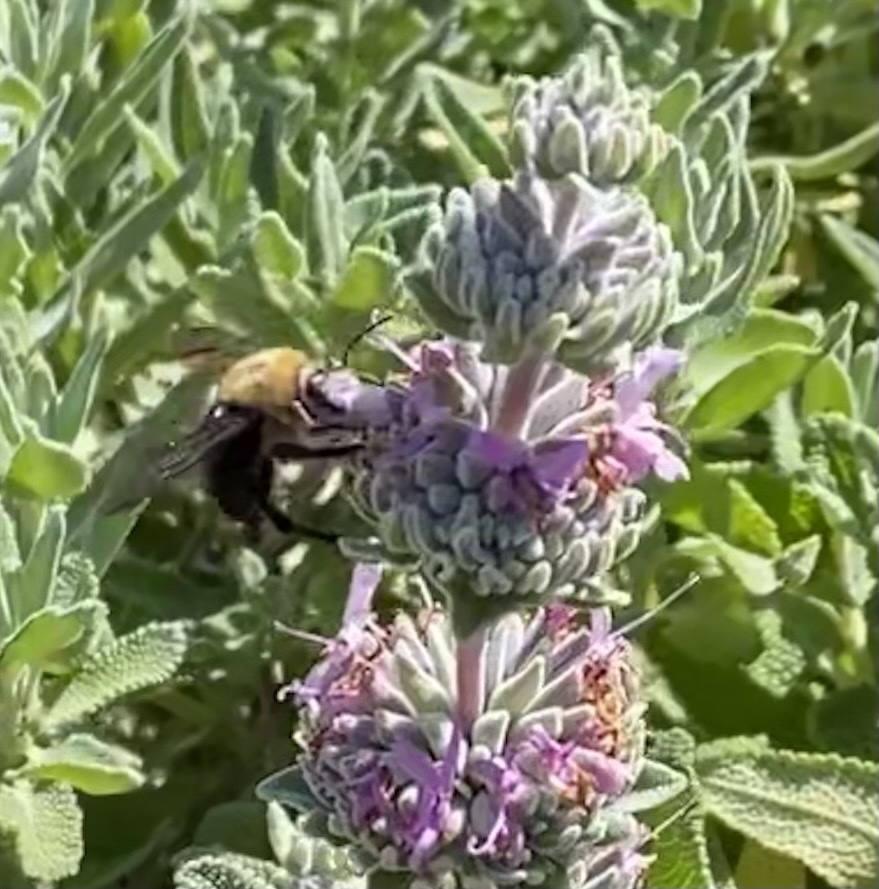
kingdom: Animalia
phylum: Arthropoda
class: Insecta
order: Hymenoptera
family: Apidae
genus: Xylocopa
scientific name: Xylocopa tabaniformis
